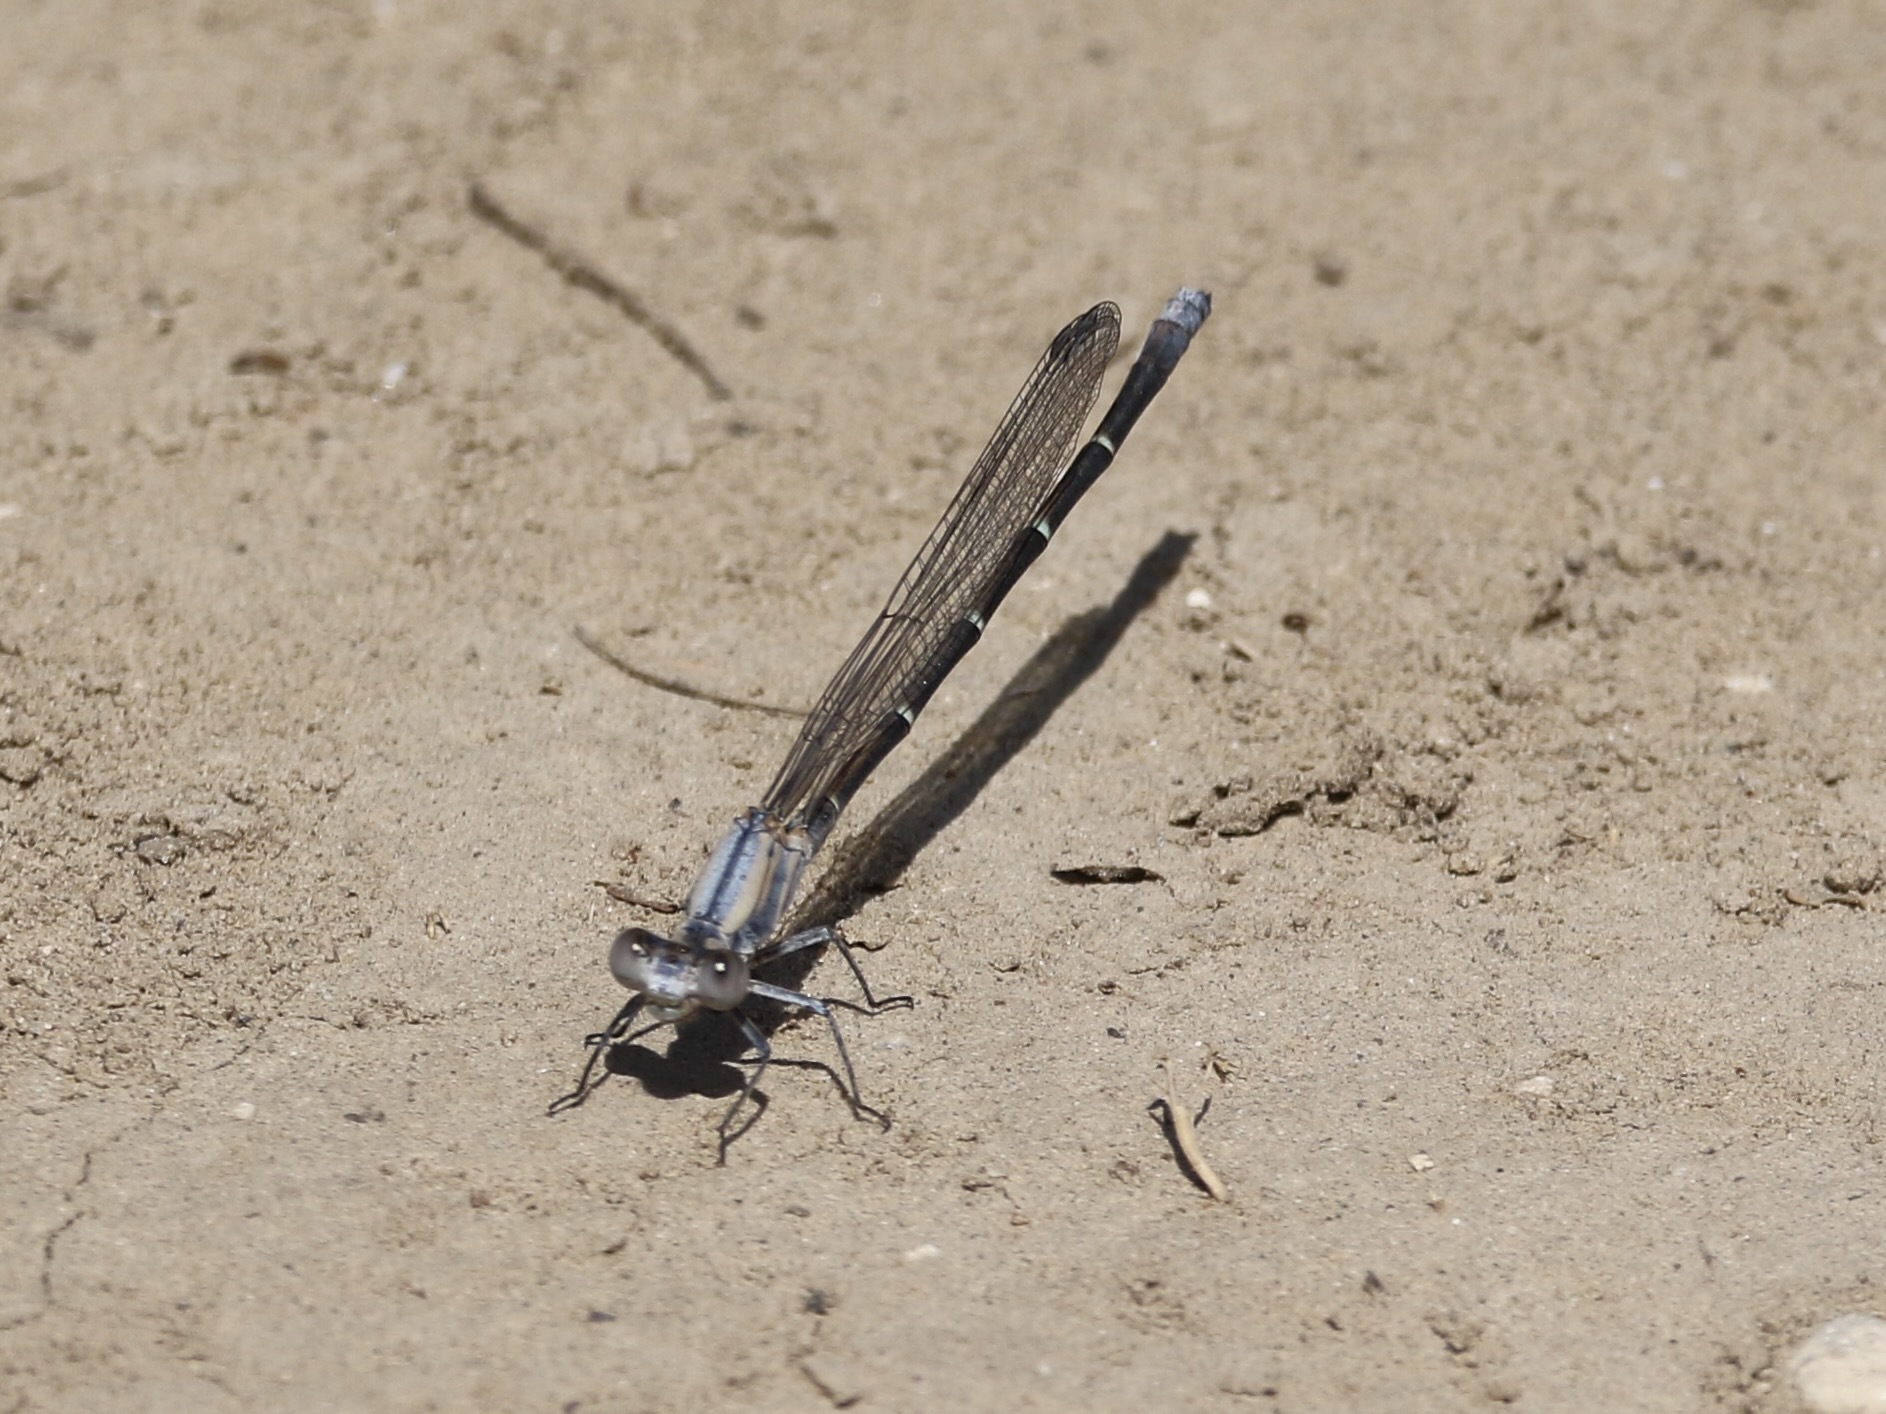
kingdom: Animalia
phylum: Arthropoda
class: Insecta
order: Odonata
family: Coenagrionidae
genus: Argia
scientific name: Argia moesta
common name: Powdered dancer
